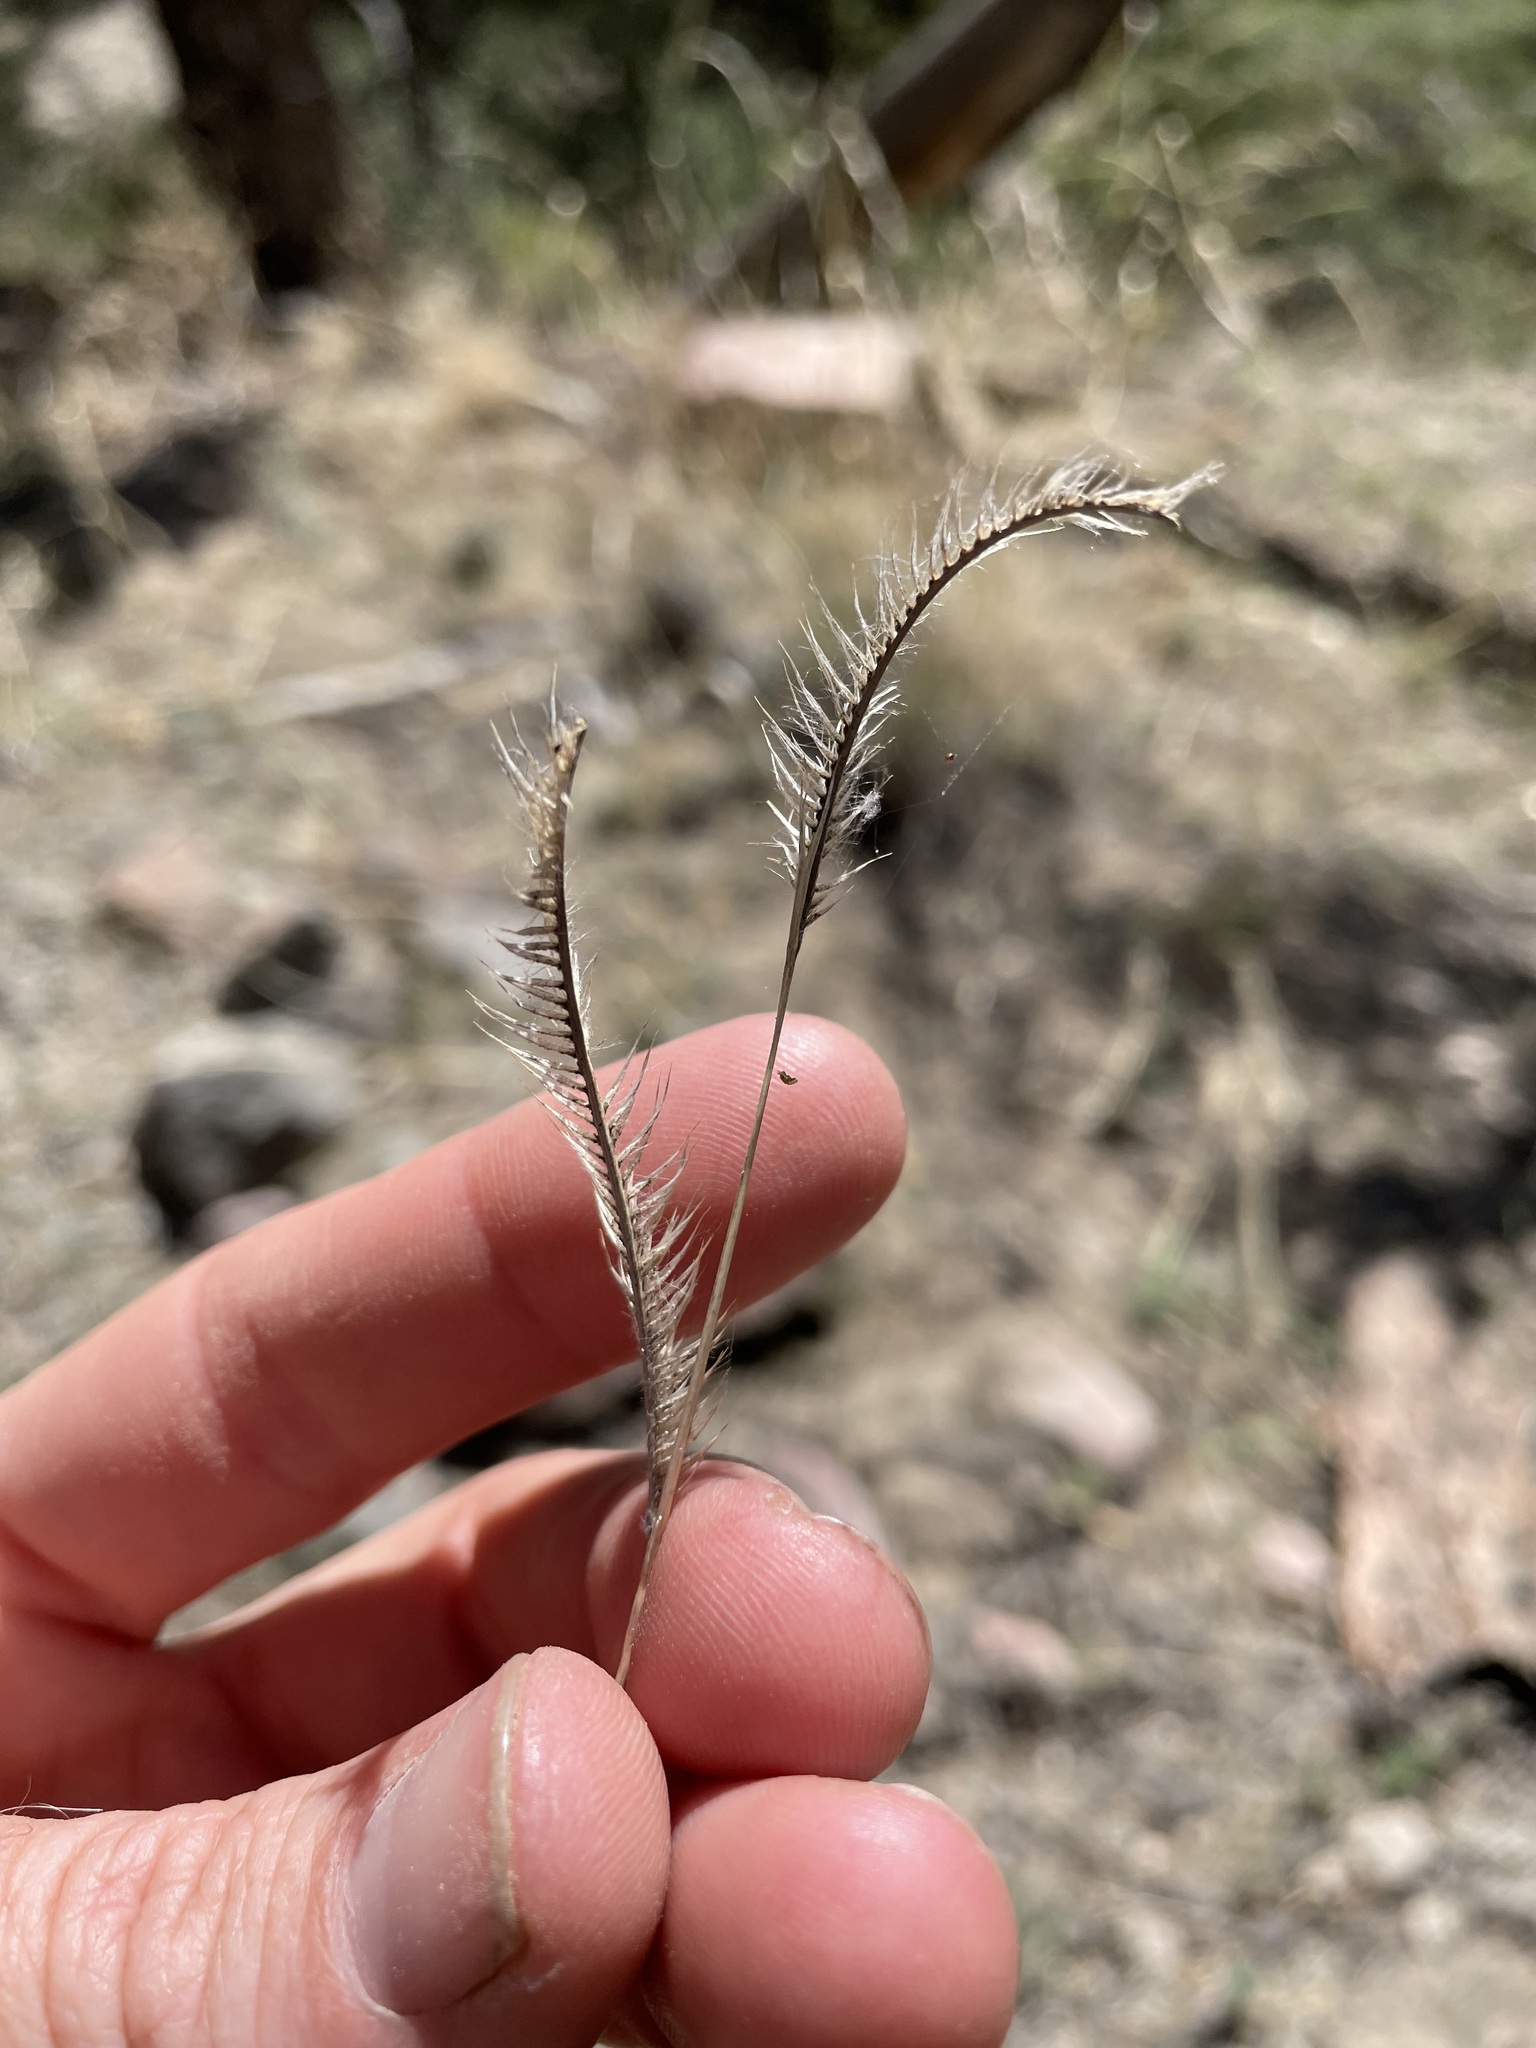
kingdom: Plantae
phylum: Tracheophyta
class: Liliopsida
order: Poales
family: Poaceae
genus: Bouteloua
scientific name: Bouteloua gracilis
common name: Blue grama
